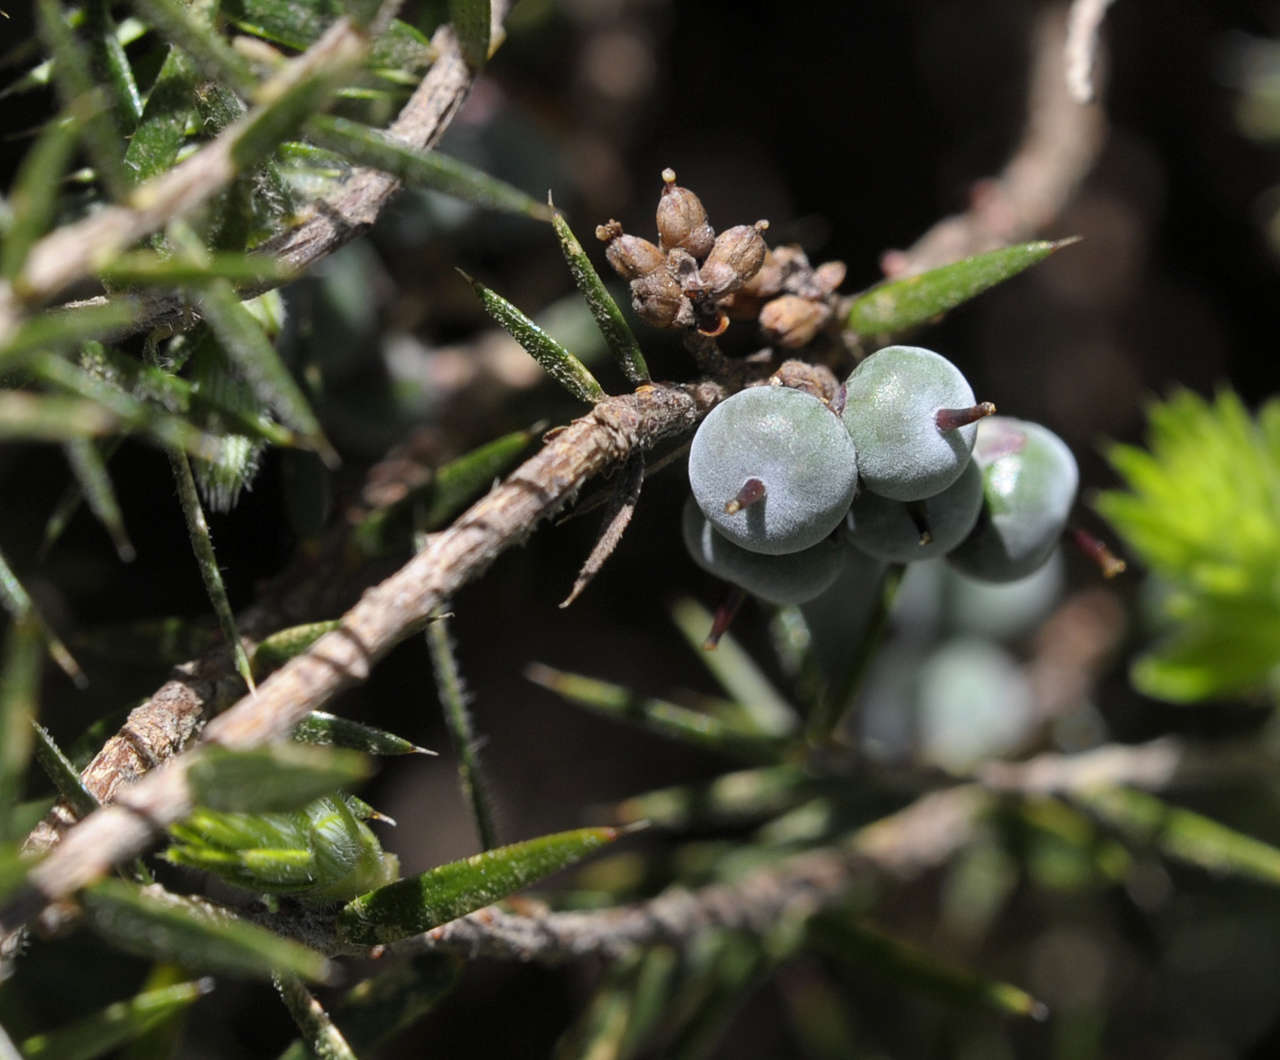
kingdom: Plantae
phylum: Tracheophyta
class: Magnoliopsida
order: Ericales
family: Ericaceae
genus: Acrotriche
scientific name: Acrotriche serrulata
